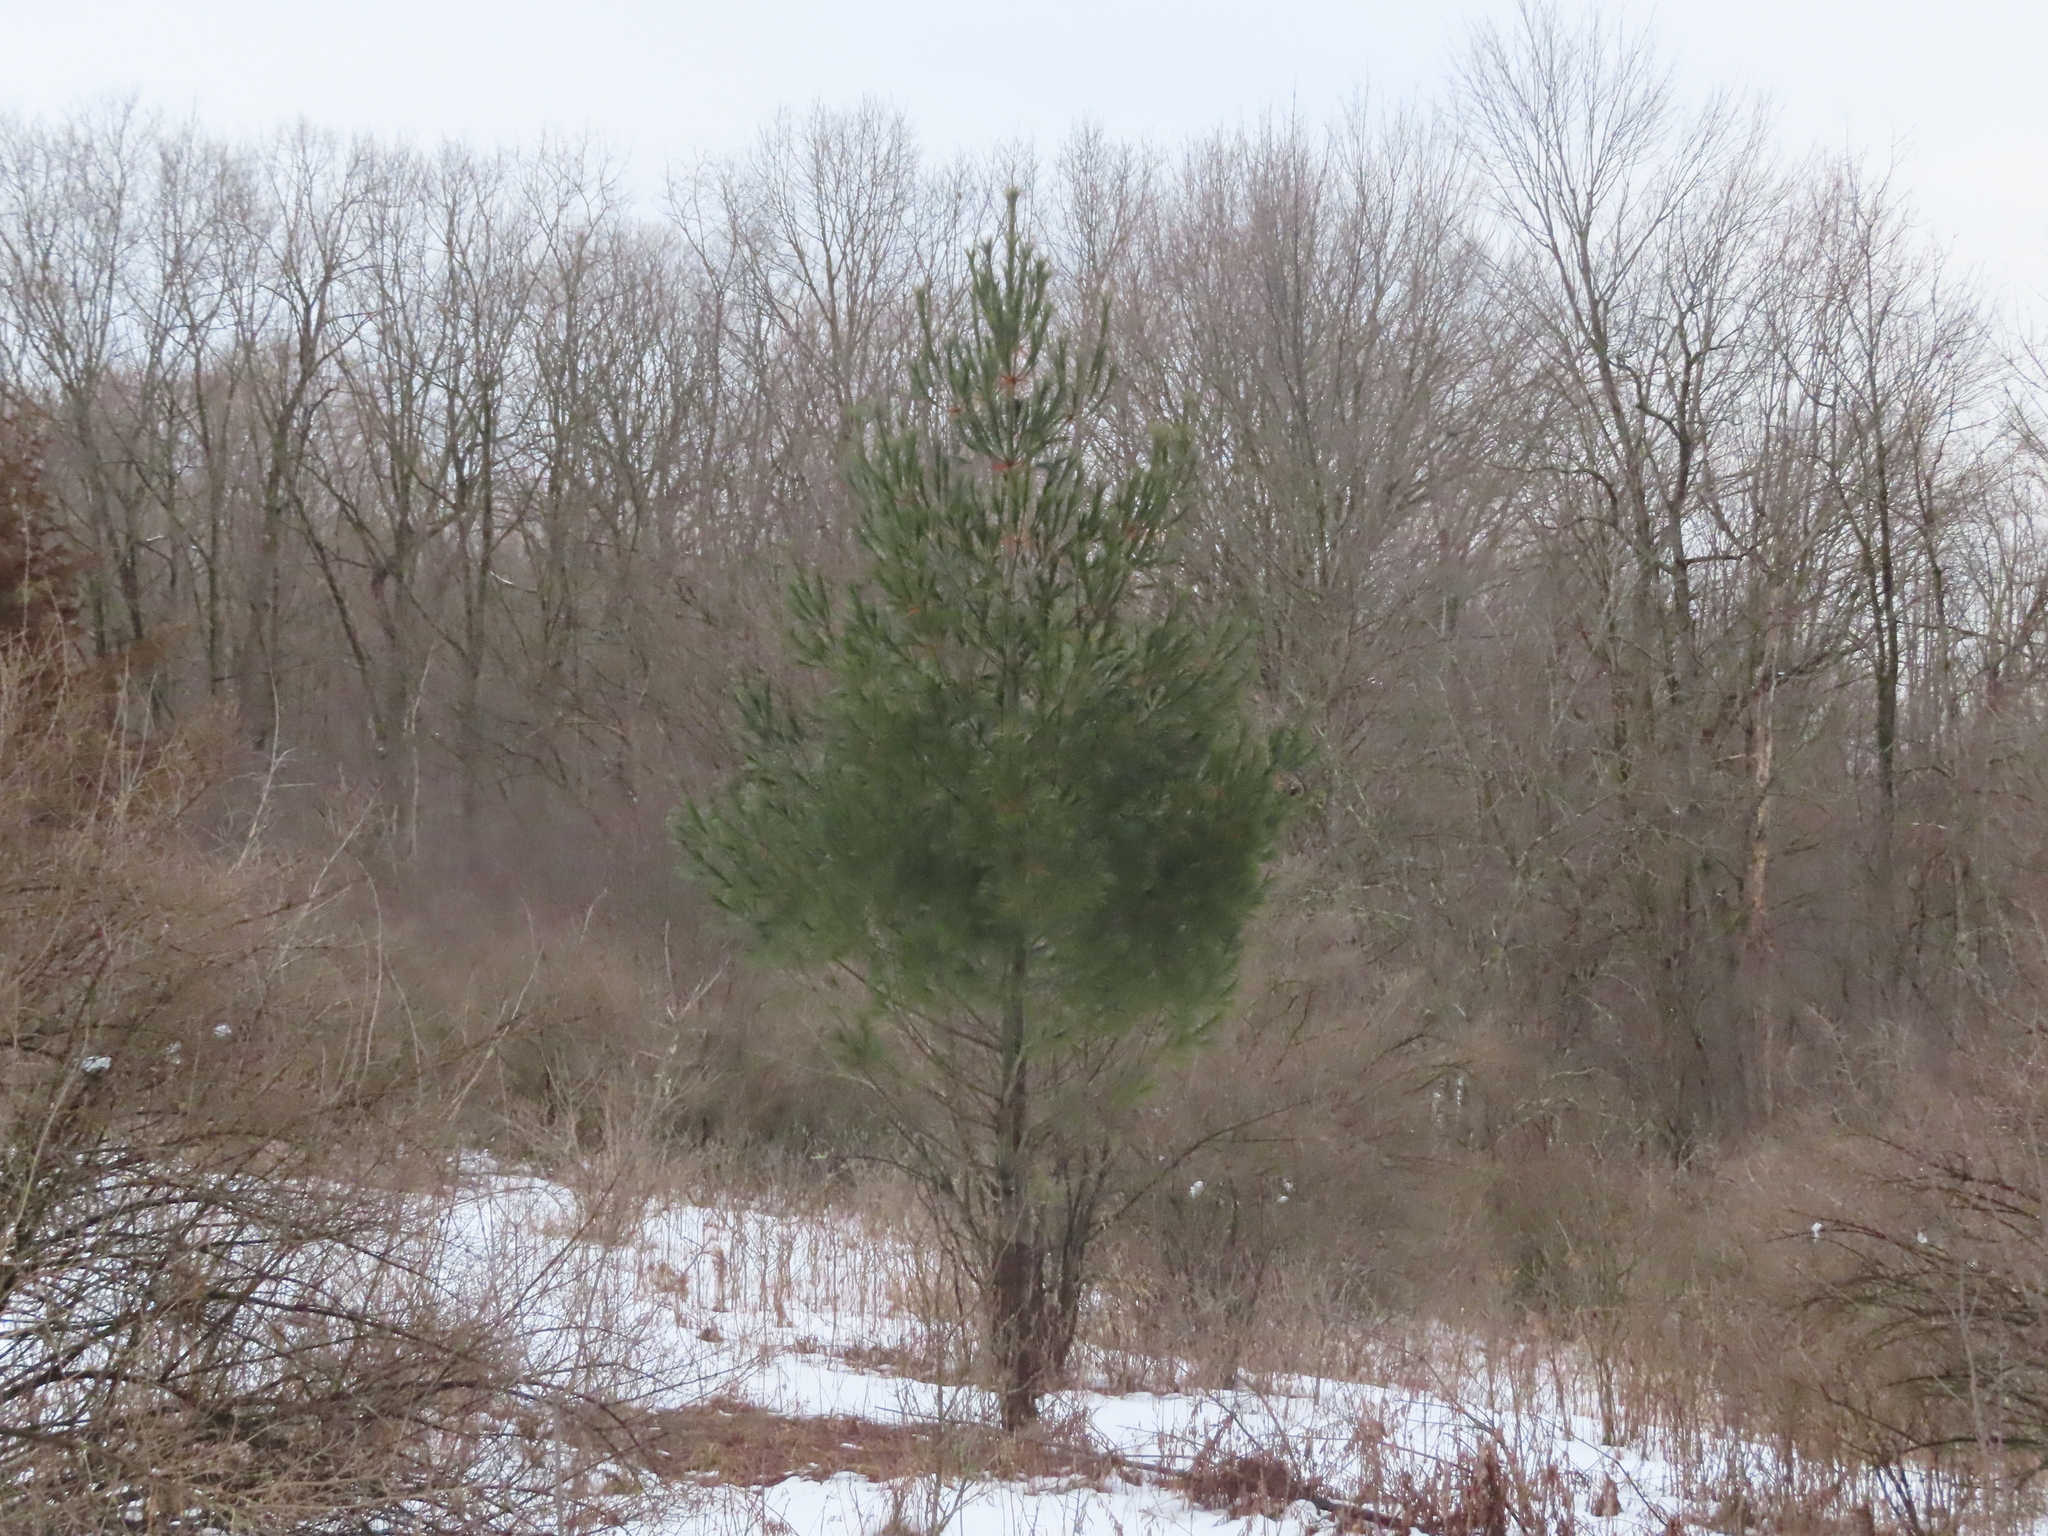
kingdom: Plantae
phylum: Tracheophyta
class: Pinopsida
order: Pinales
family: Pinaceae
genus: Pinus
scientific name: Pinus strobus
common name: Weymouth pine
